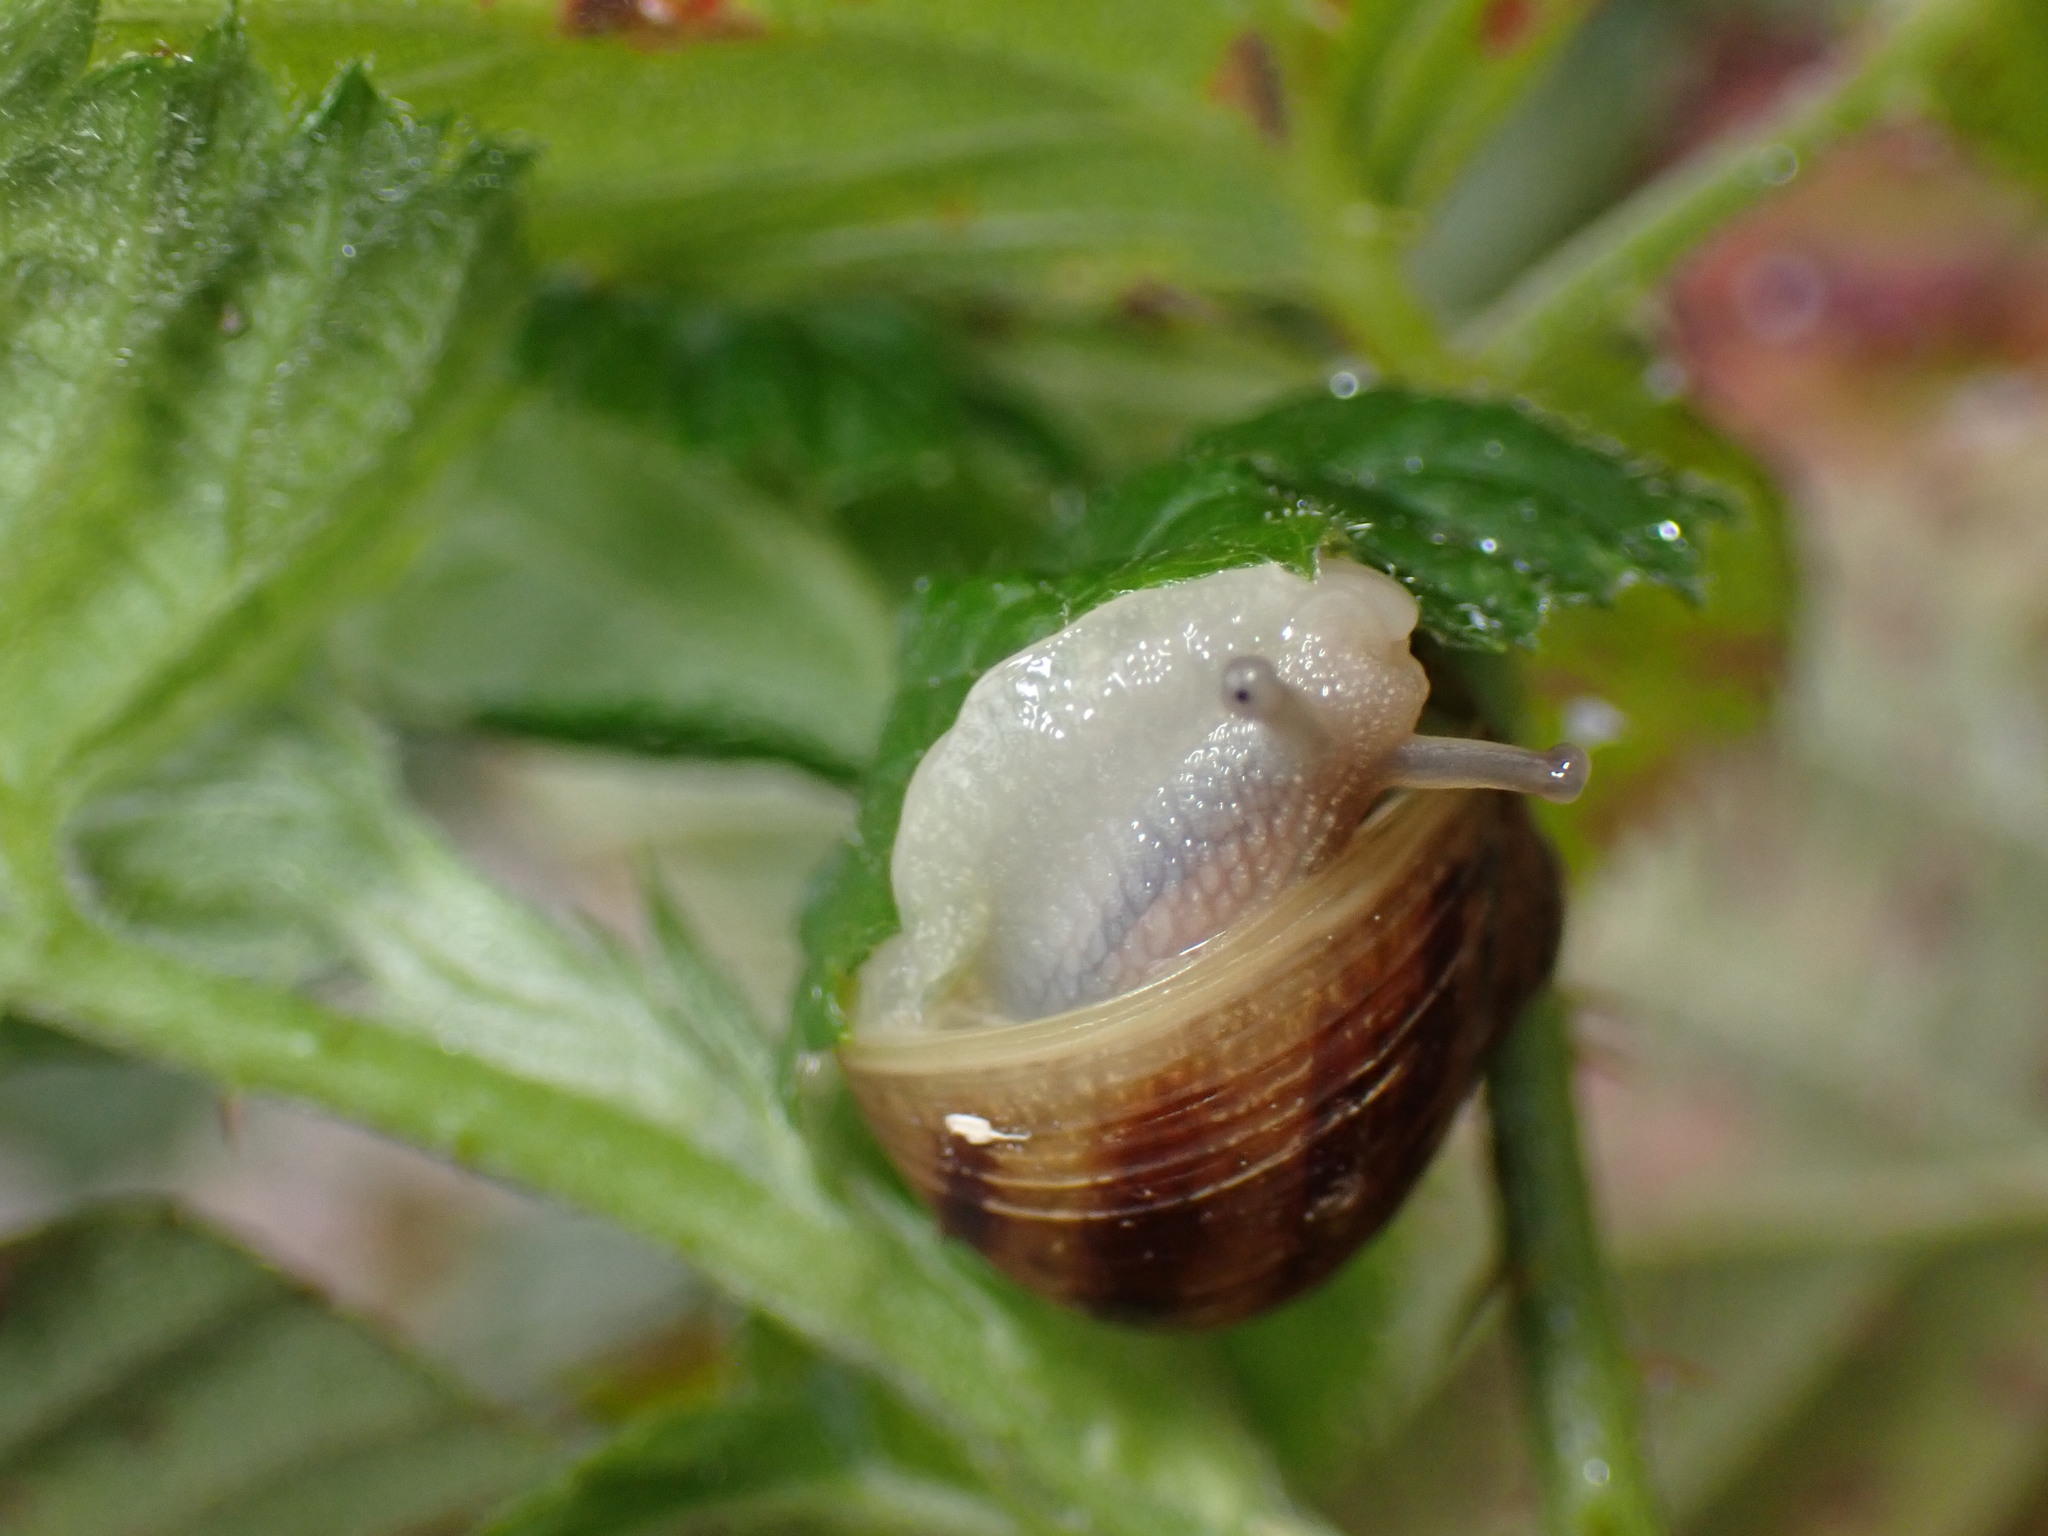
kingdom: Animalia
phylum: Mollusca
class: Gastropoda
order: Stylommatophora
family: Helicidae
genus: Cornu
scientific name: Cornu aspersum
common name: Brown garden snail
